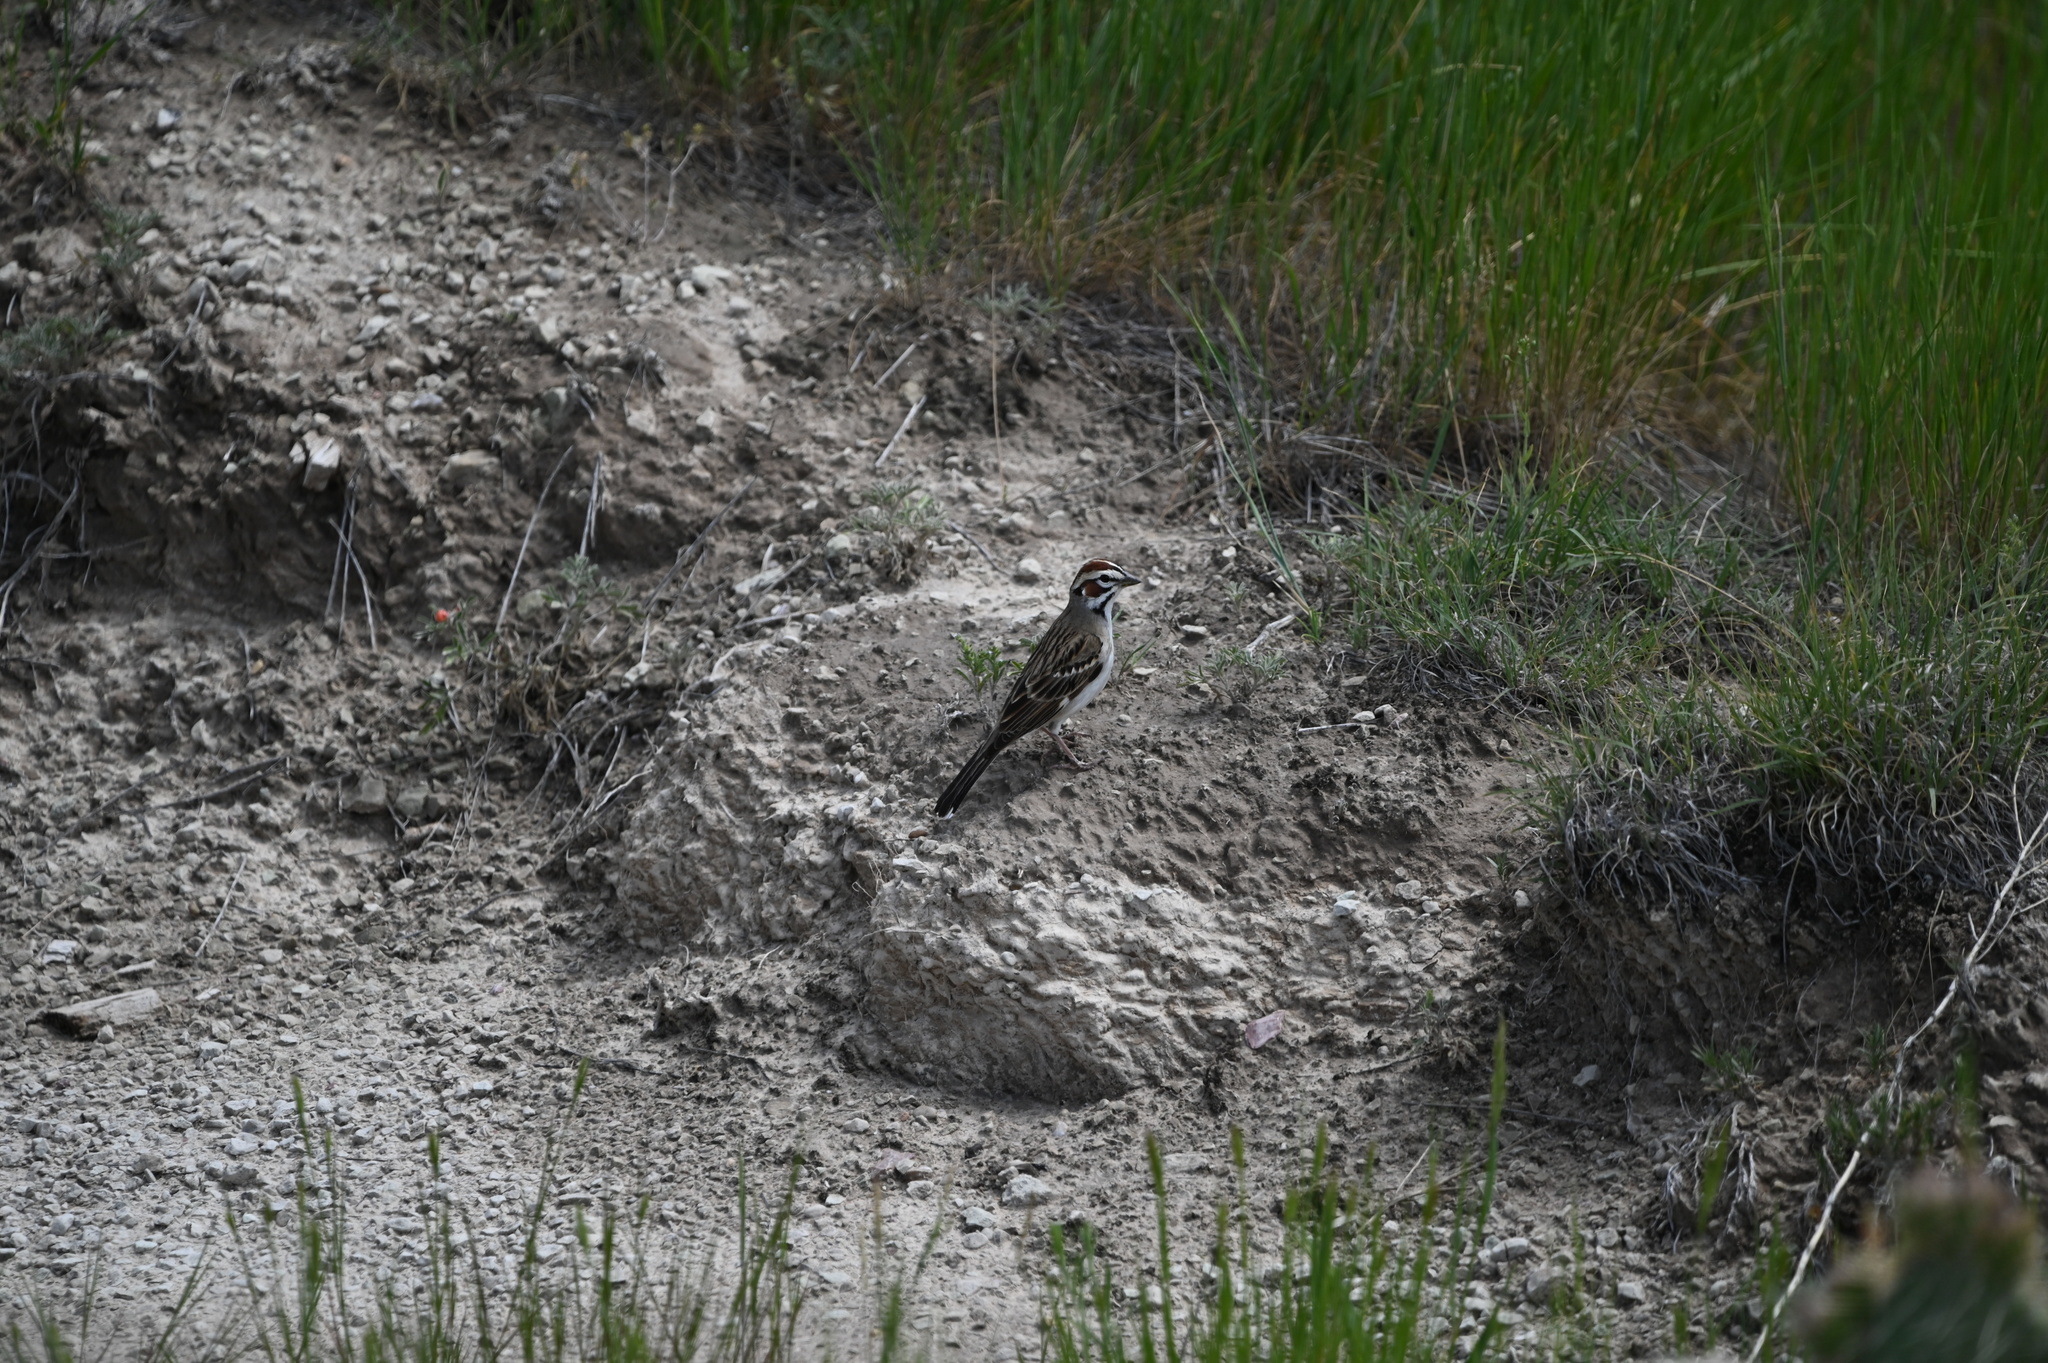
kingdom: Animalia
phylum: Chordata
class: Aves
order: Passeriformes
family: Passerellidae
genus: Chondestes
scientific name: Chondestes grammacus
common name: Lark sparrow
